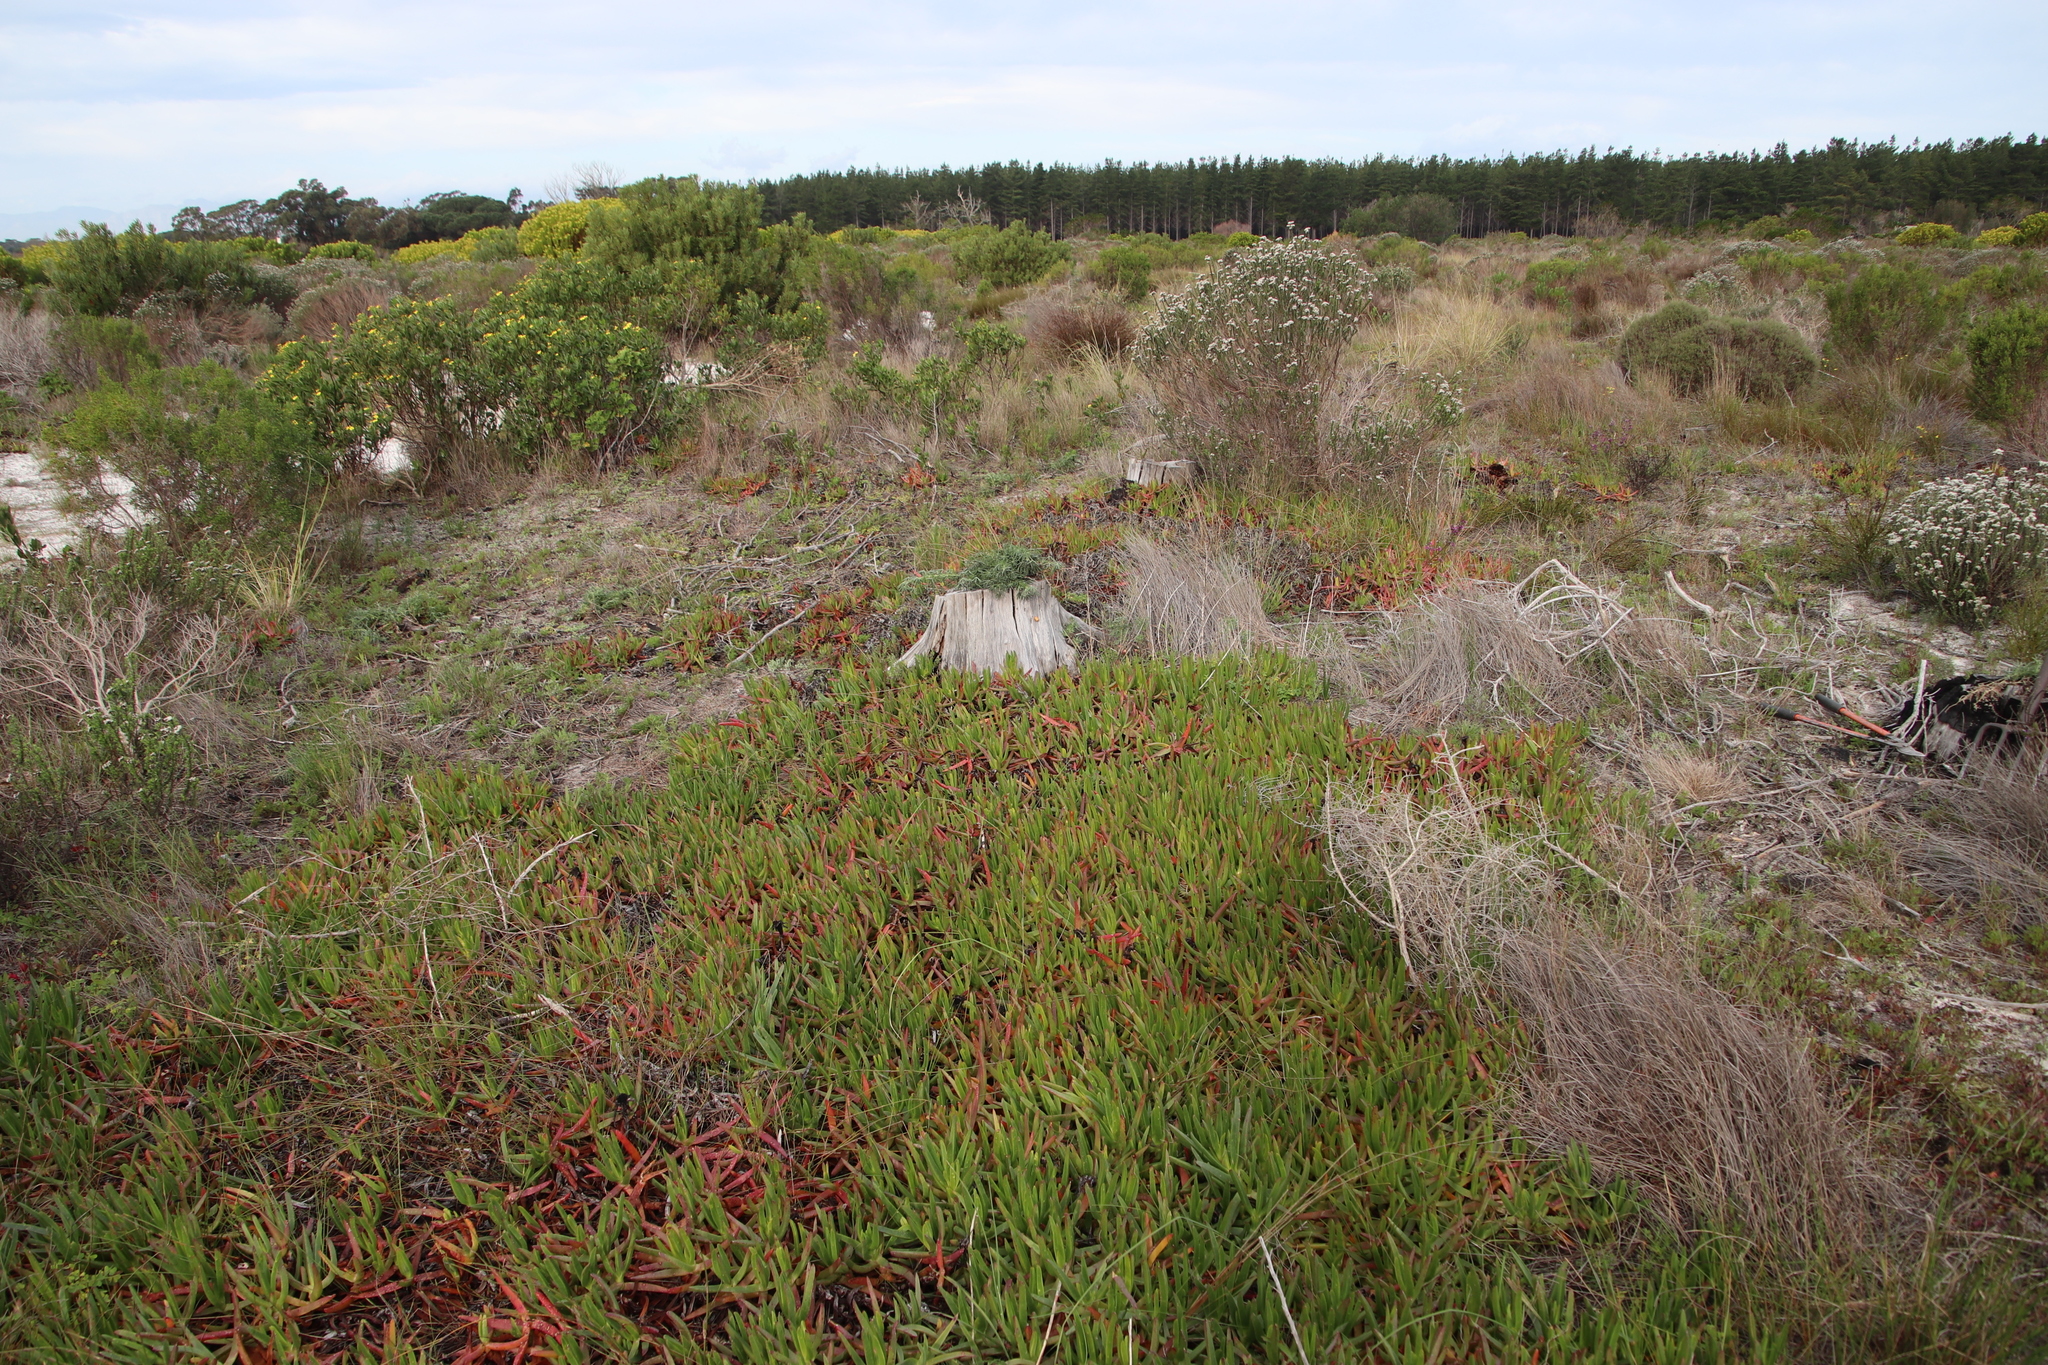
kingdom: Plantae
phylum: Tracheophyta
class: Magnoliopsida
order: Caryophyllales
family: Aizoaceae
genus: Carpobrotus
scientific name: Carpobrotus edulis
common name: Hottentot-fig
